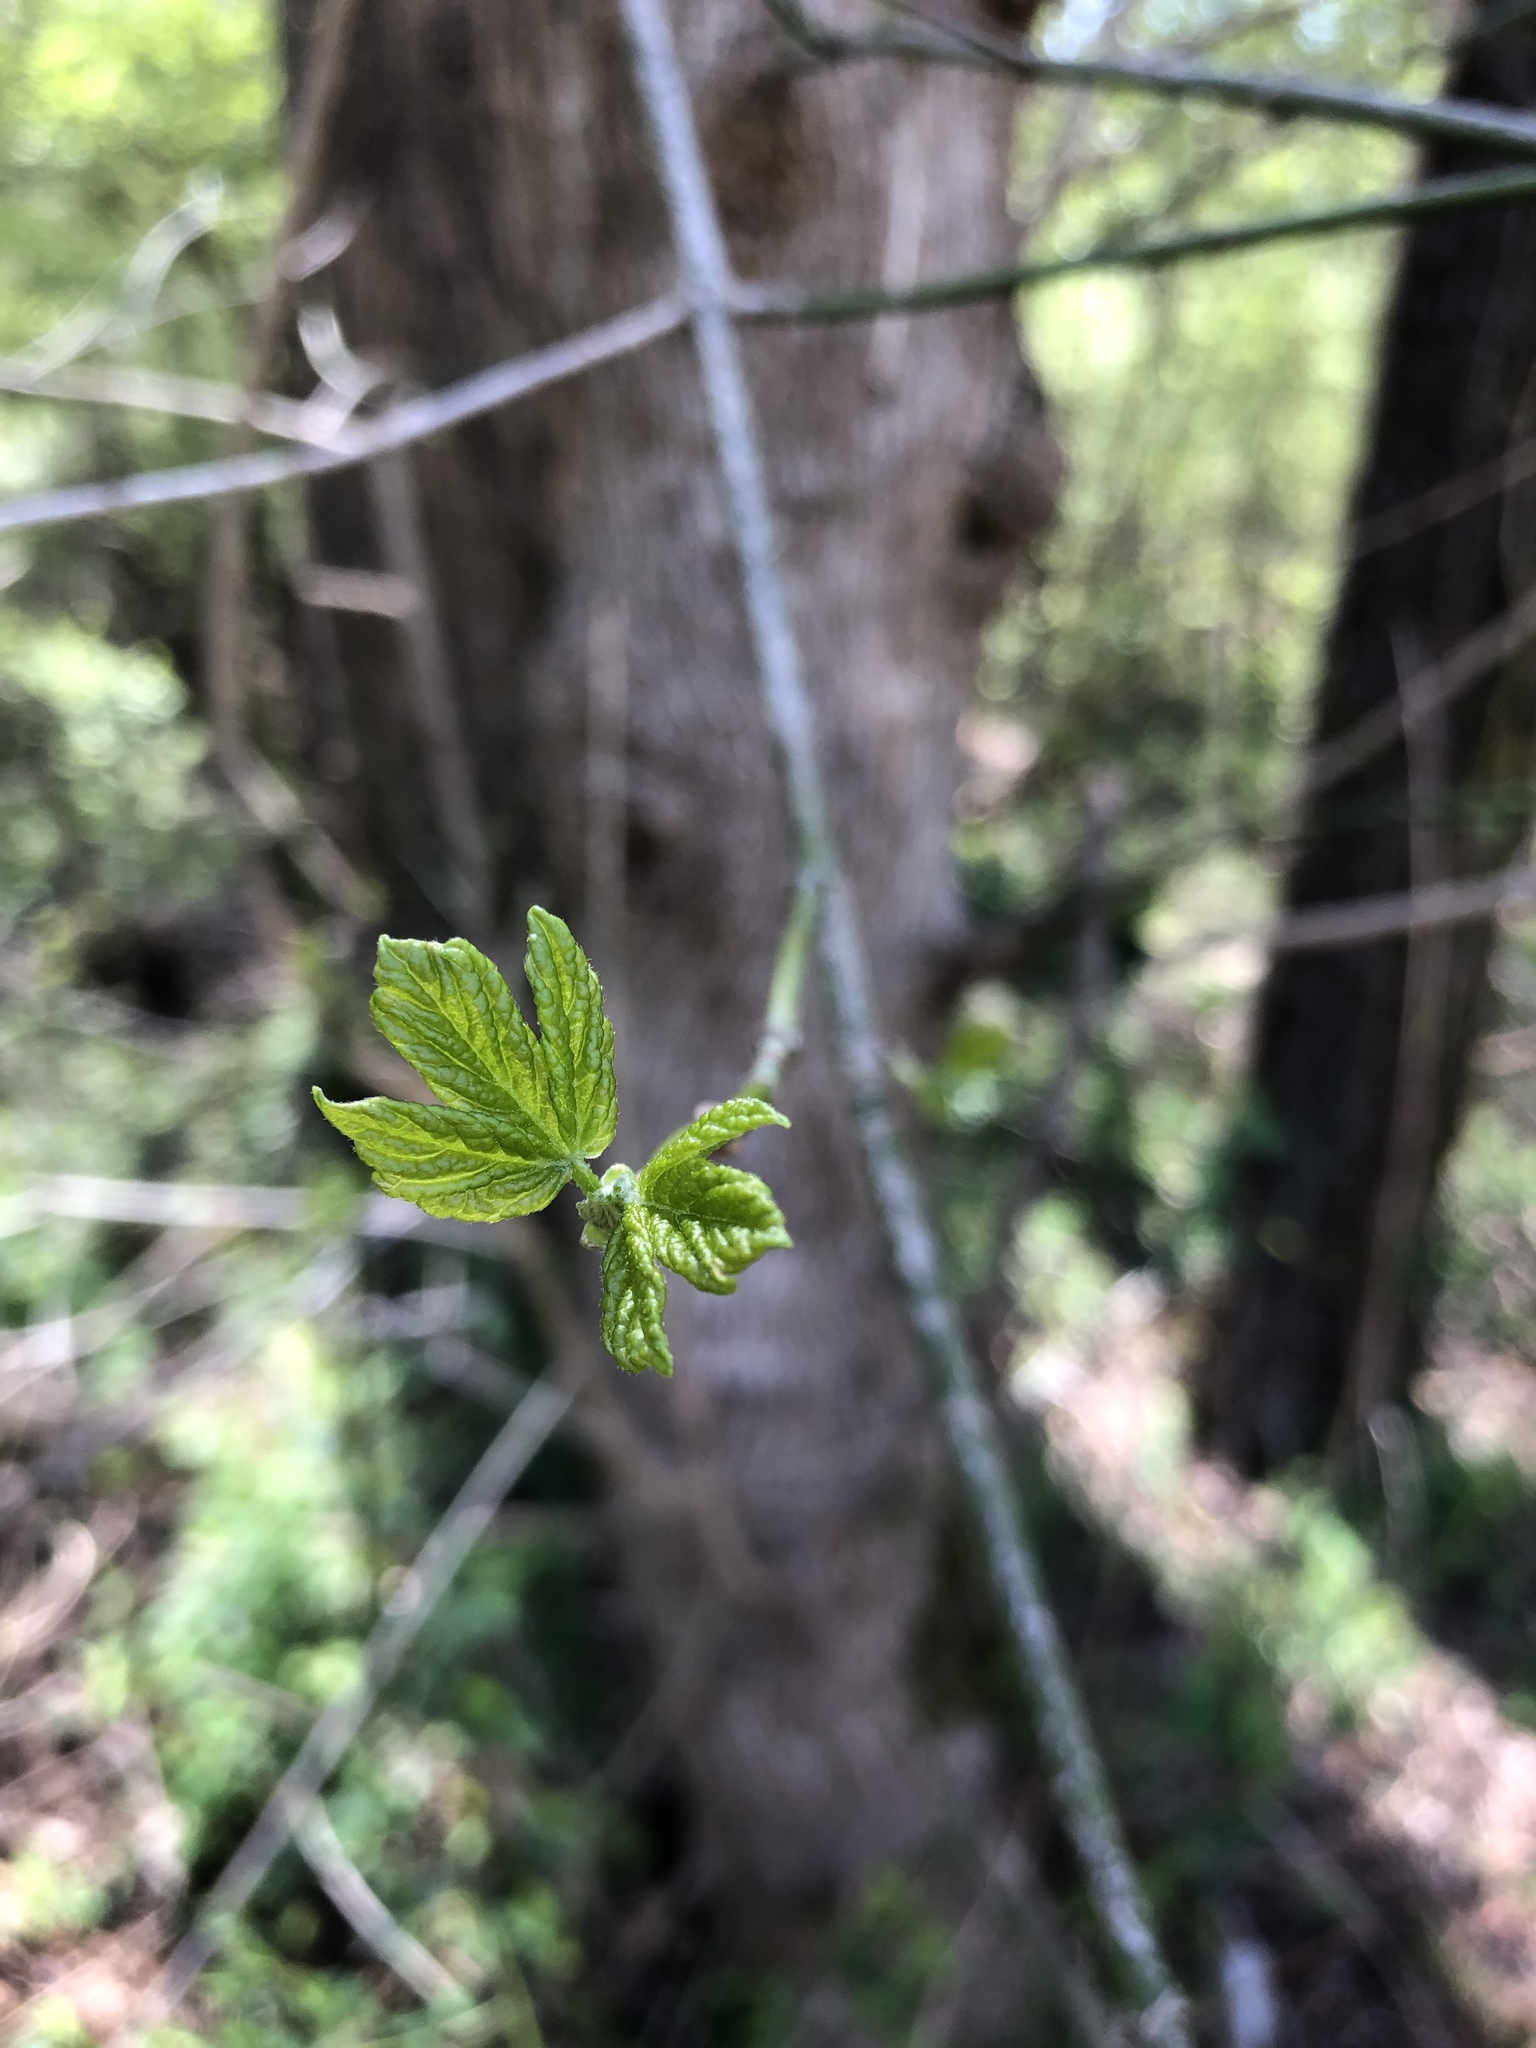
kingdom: Plantae
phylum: Tracheophyta
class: Magnoliopsida
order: Sapindales
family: Sapindaceae
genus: Acer
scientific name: Acer negundo
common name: Ashleaf maple
